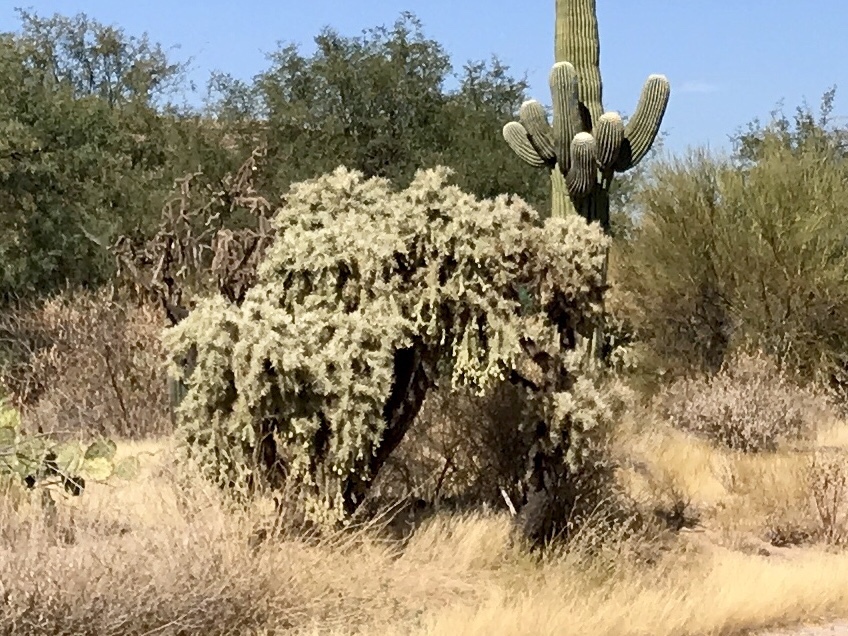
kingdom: Plantae
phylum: Tracheophyta
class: Magnoliopsida
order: Caryophyllales
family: Cactaceae
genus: Cylindropuntia
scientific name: Cylindropuntia fulgida
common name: Jumping cholla
